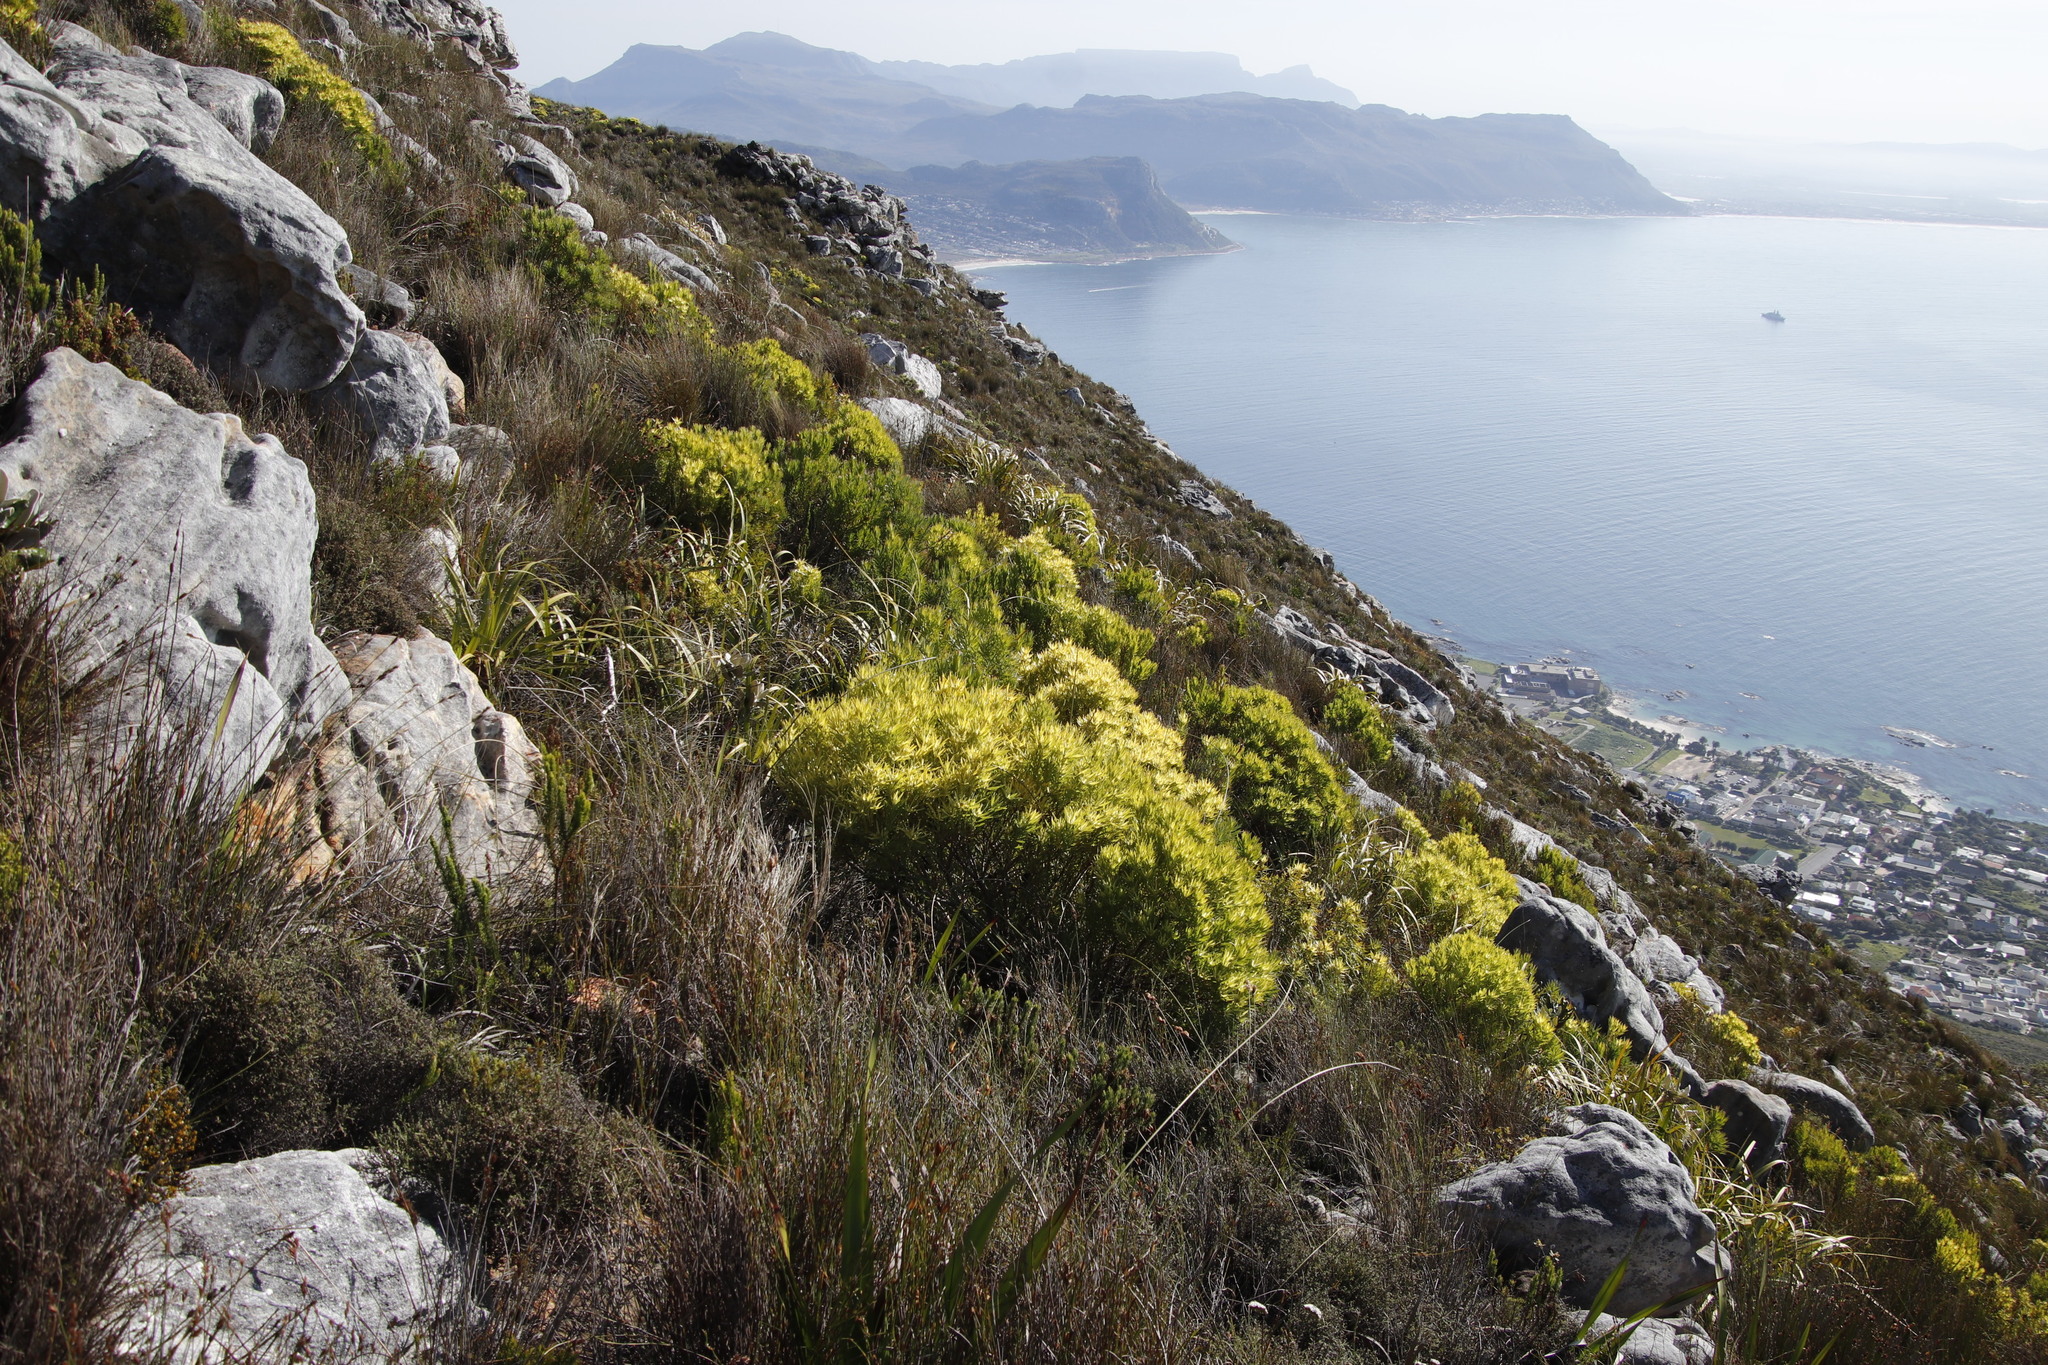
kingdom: Plantae
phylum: Tracheophyta
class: Magnoliopsida
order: Proteales
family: Proteaceae
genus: Leucadendron
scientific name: Leucadendron xanthoconus
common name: Sickle-leaf conebush
